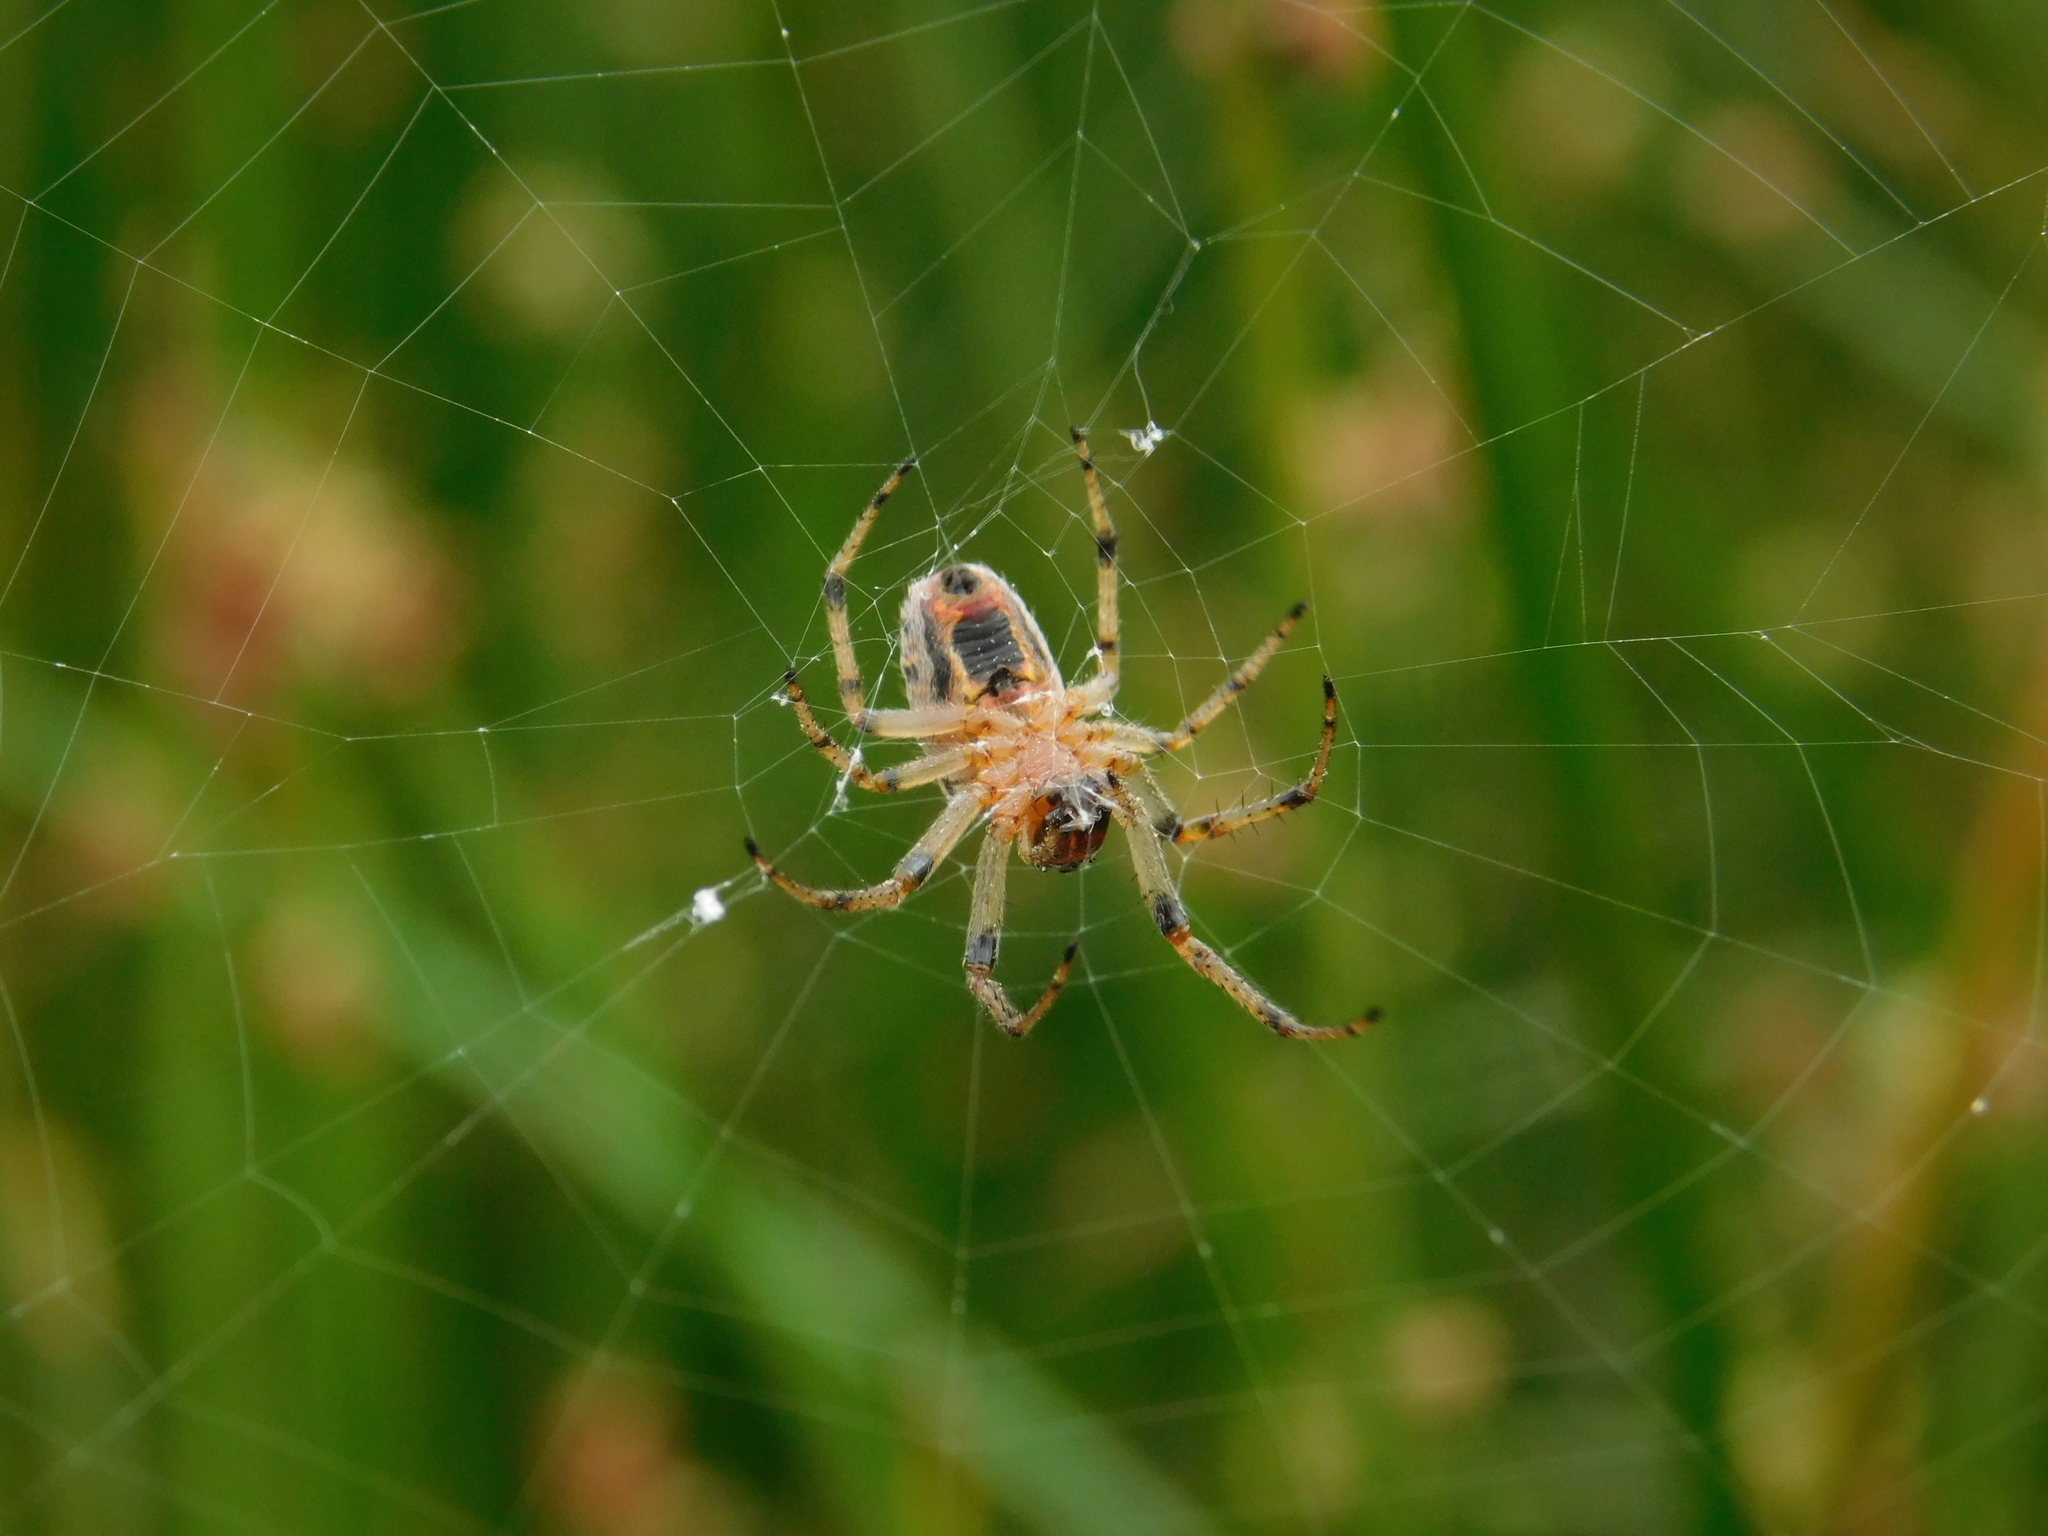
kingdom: Animalia
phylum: Arthropoda
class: Arachnida
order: Araneae
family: Araneidae
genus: Alpaida
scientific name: Alpaida veniliae
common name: Orb weavers
